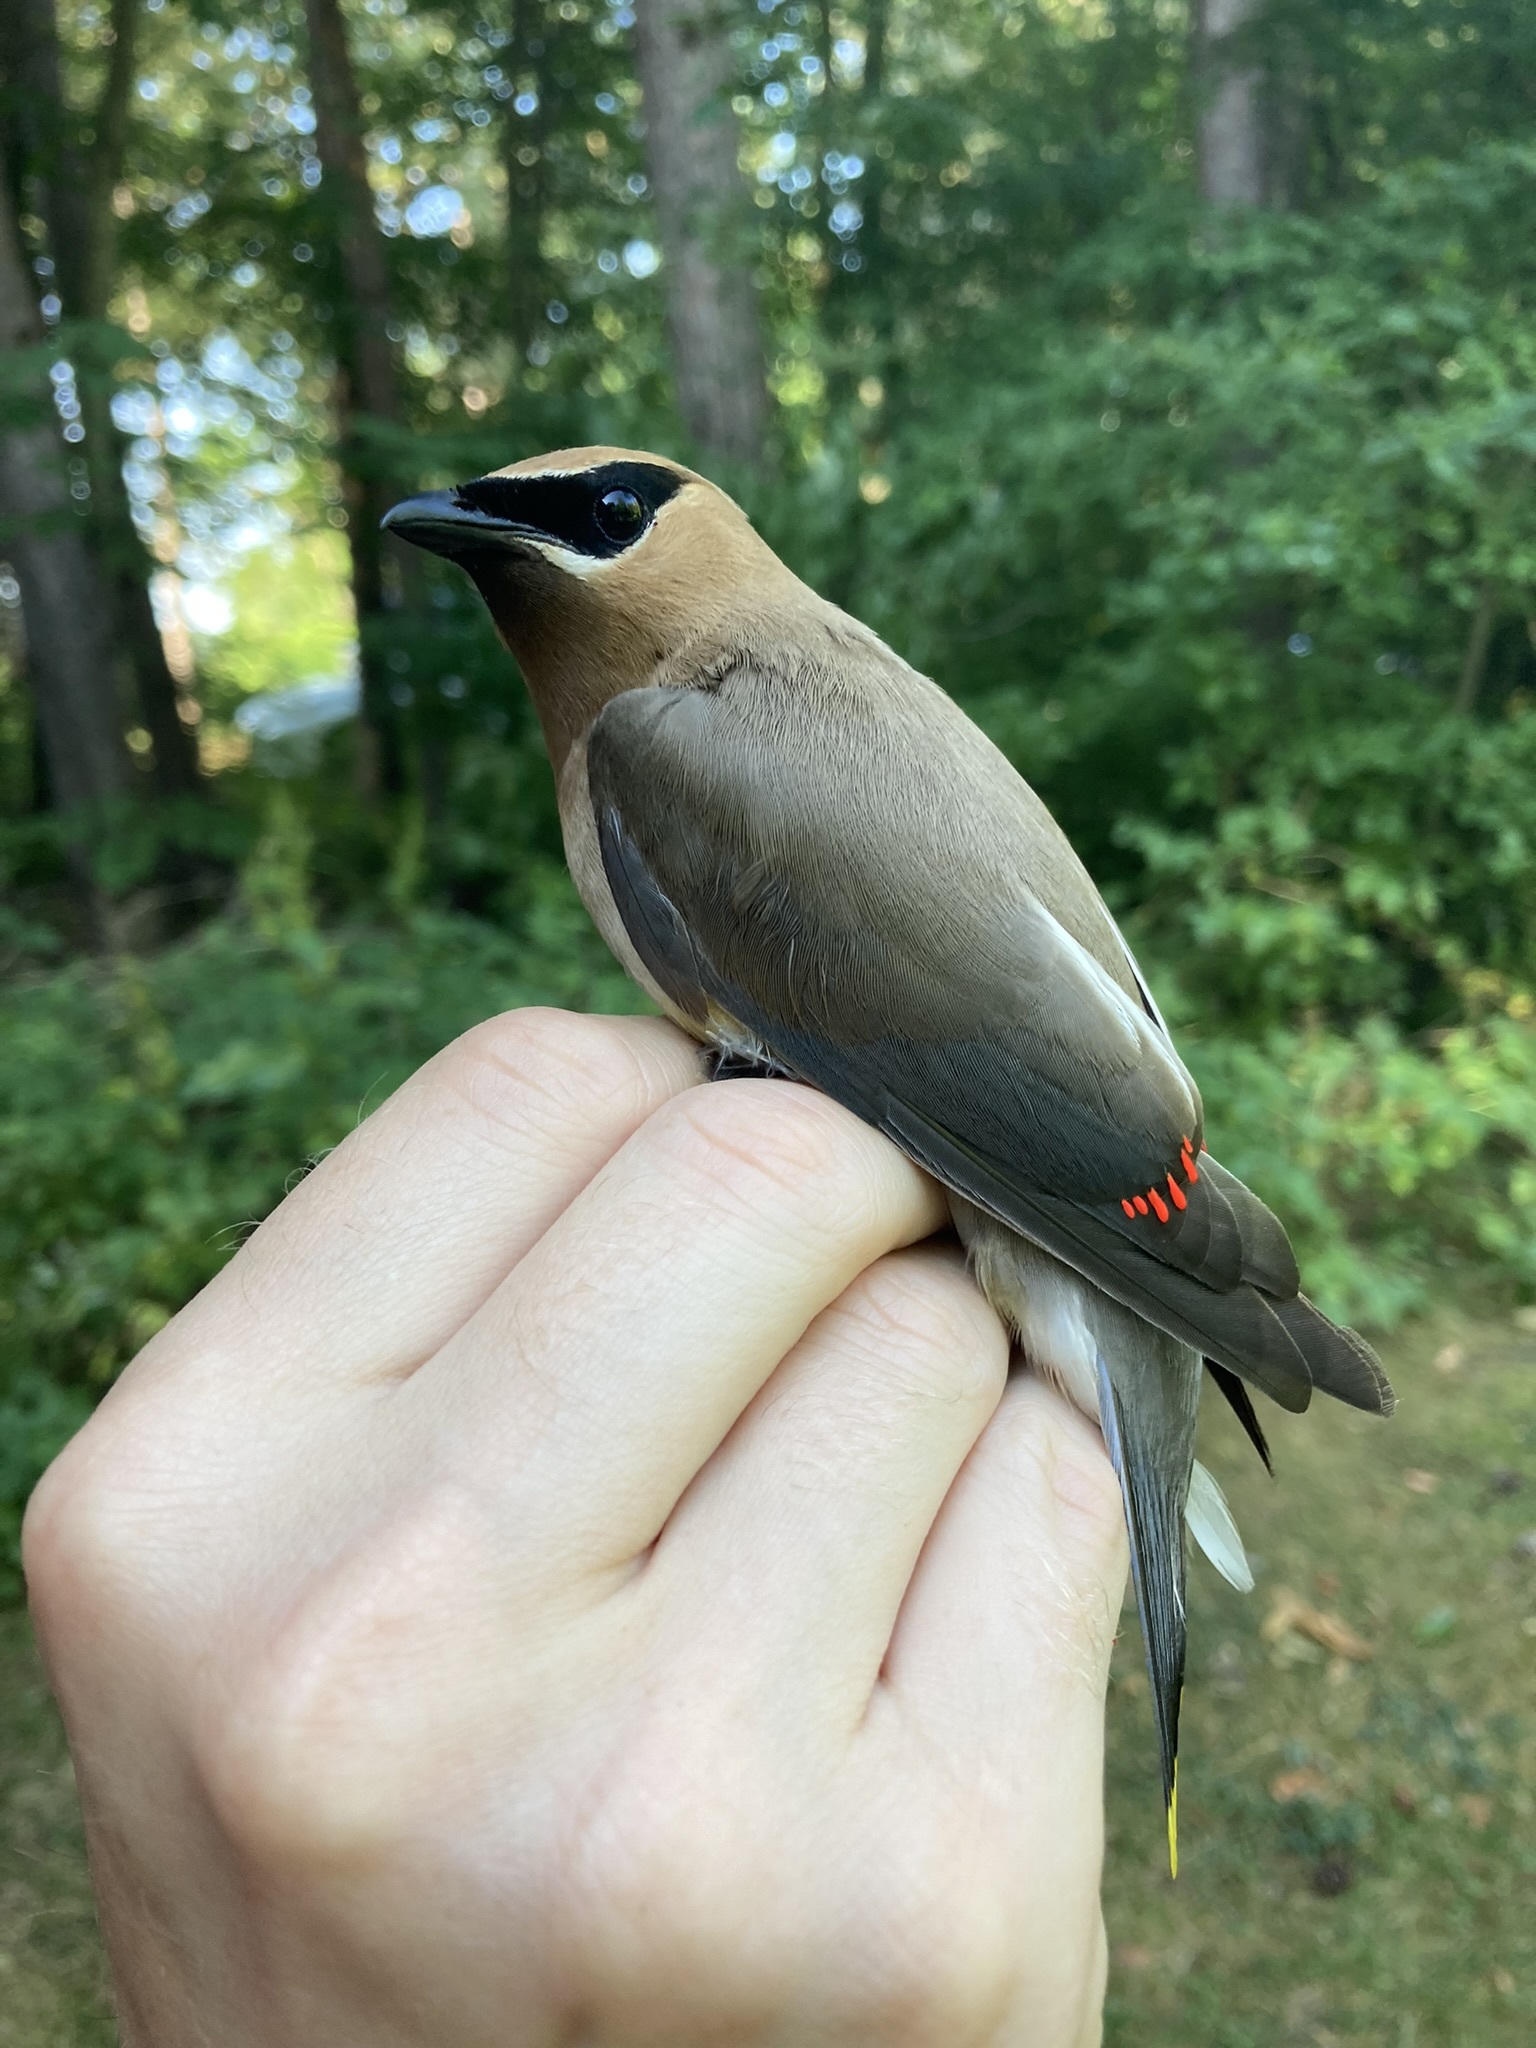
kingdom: Animalia
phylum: Chordata
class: Aves
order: Passeriformes
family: Bombycillidae
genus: Bombycilla
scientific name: Bombycilla cedrorum
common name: Cedar waxwing
